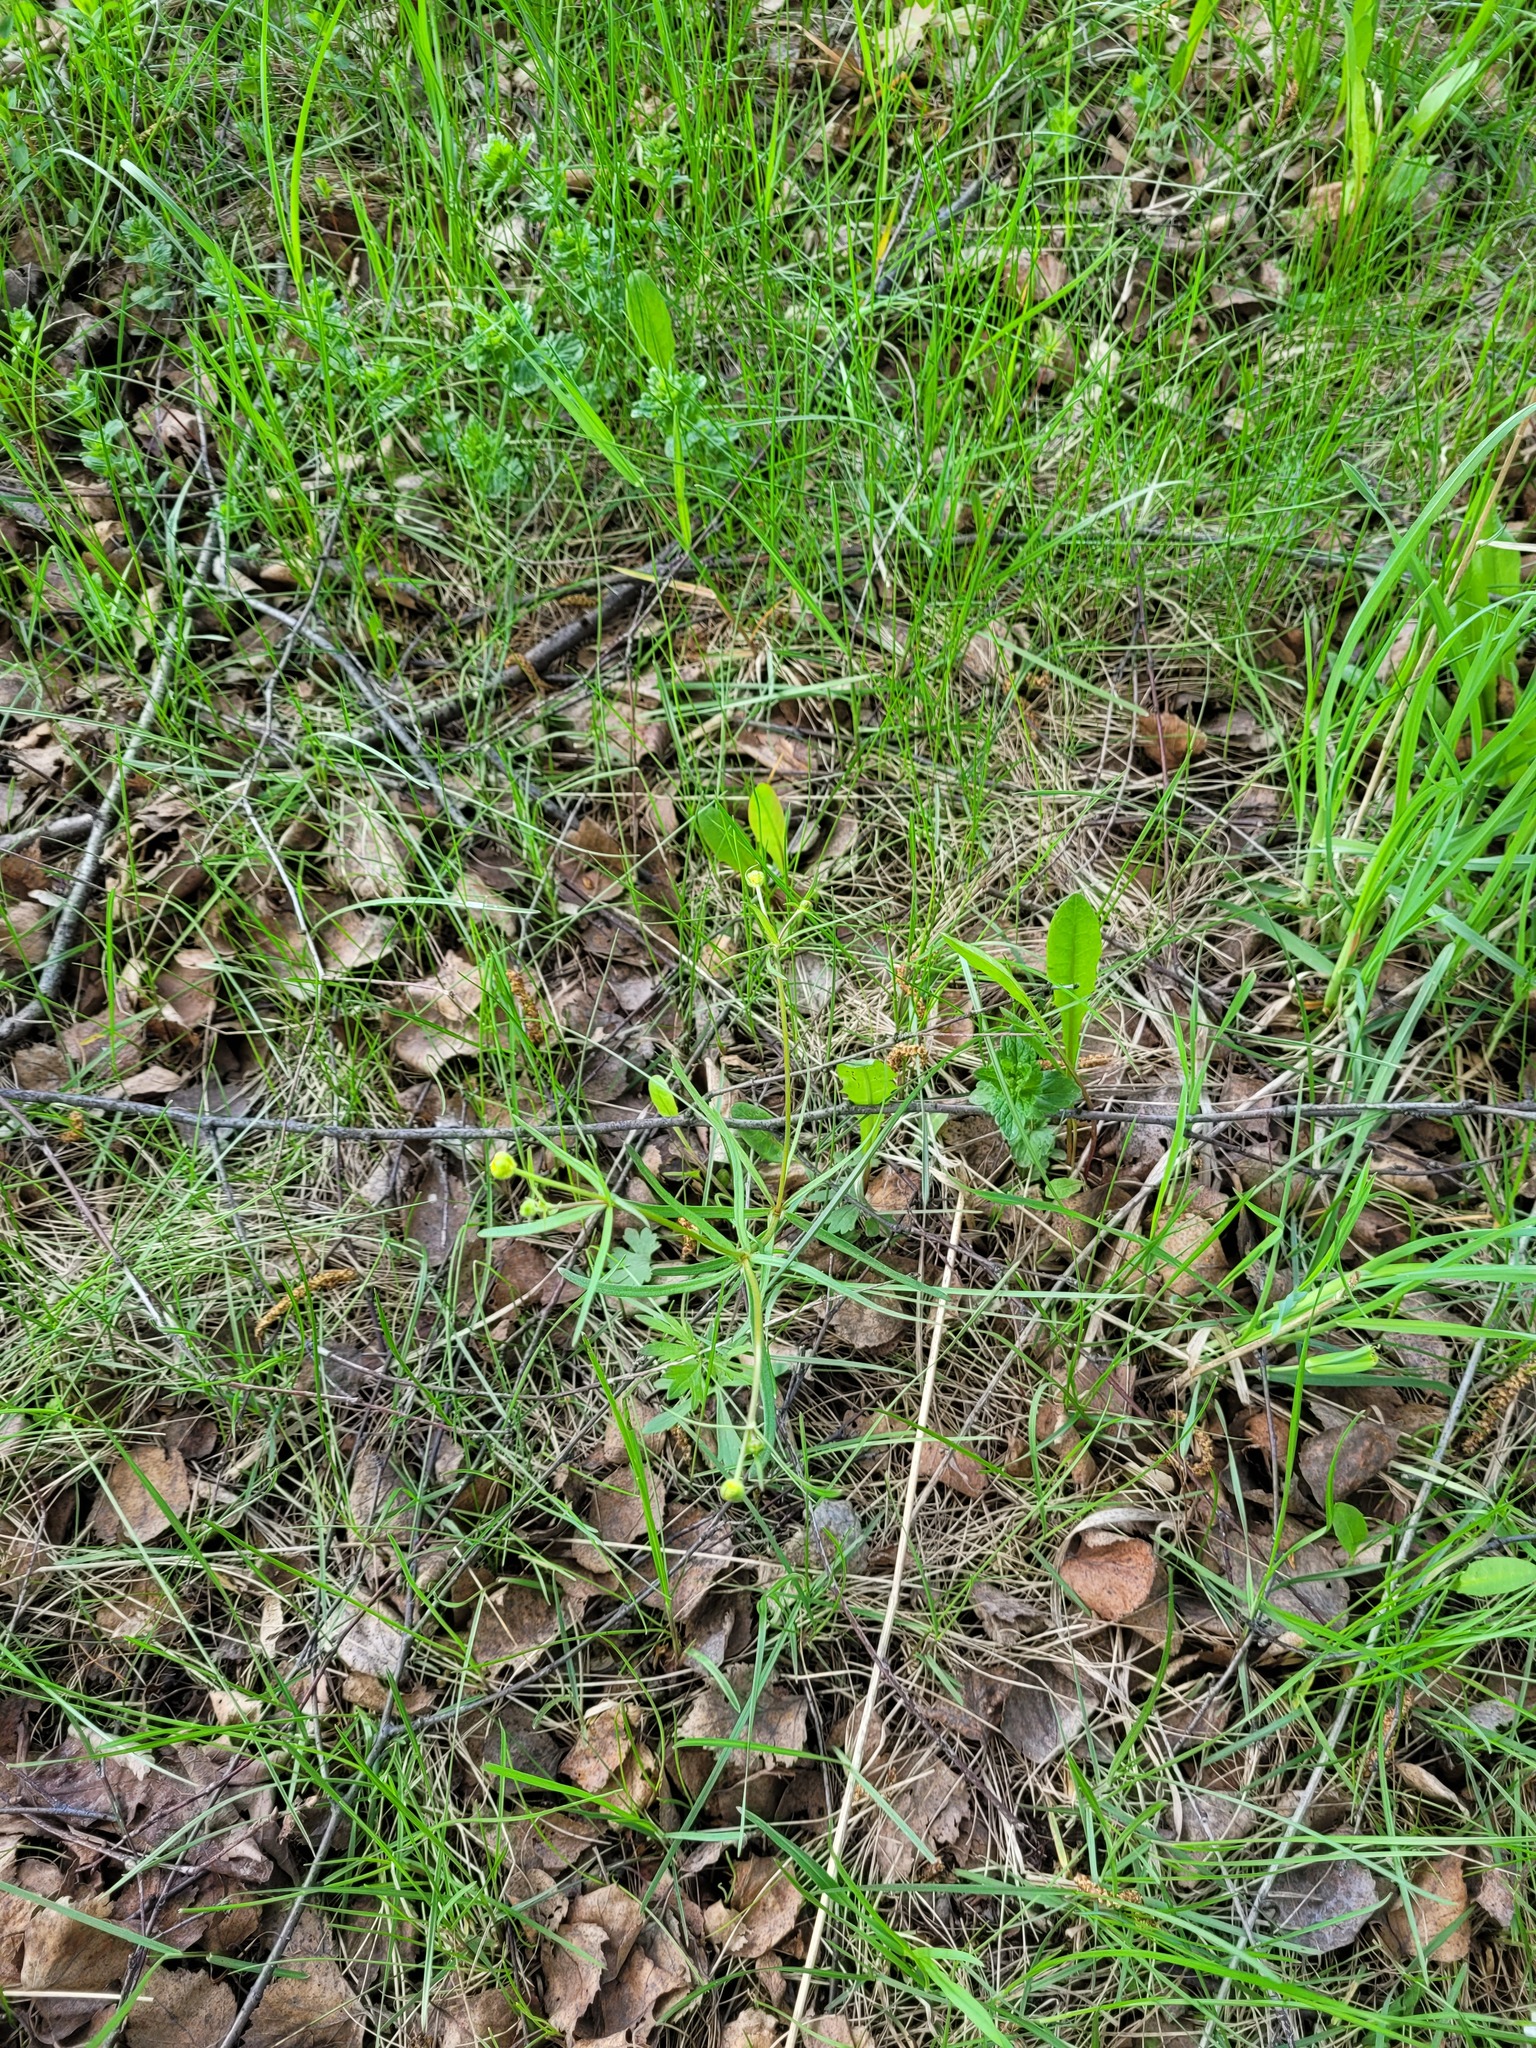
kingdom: Plantae
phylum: Tracheophyta
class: Magnoliopsida
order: Ranunculales
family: Ranunculaceae
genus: Ranunculus
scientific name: Ranunculus auricomus
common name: Goldilocks buttercup
